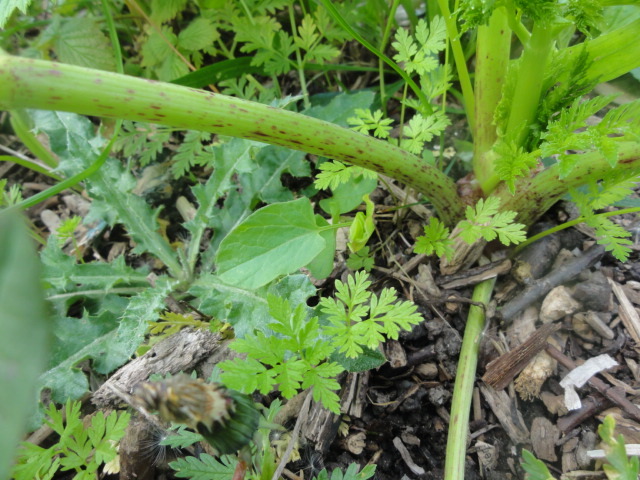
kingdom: Plantae
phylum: Tracheophyta
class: Magnoliopsida
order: Apiales
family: Apiaceae
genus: Conium
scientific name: Conium maculatum
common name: Hemlock
